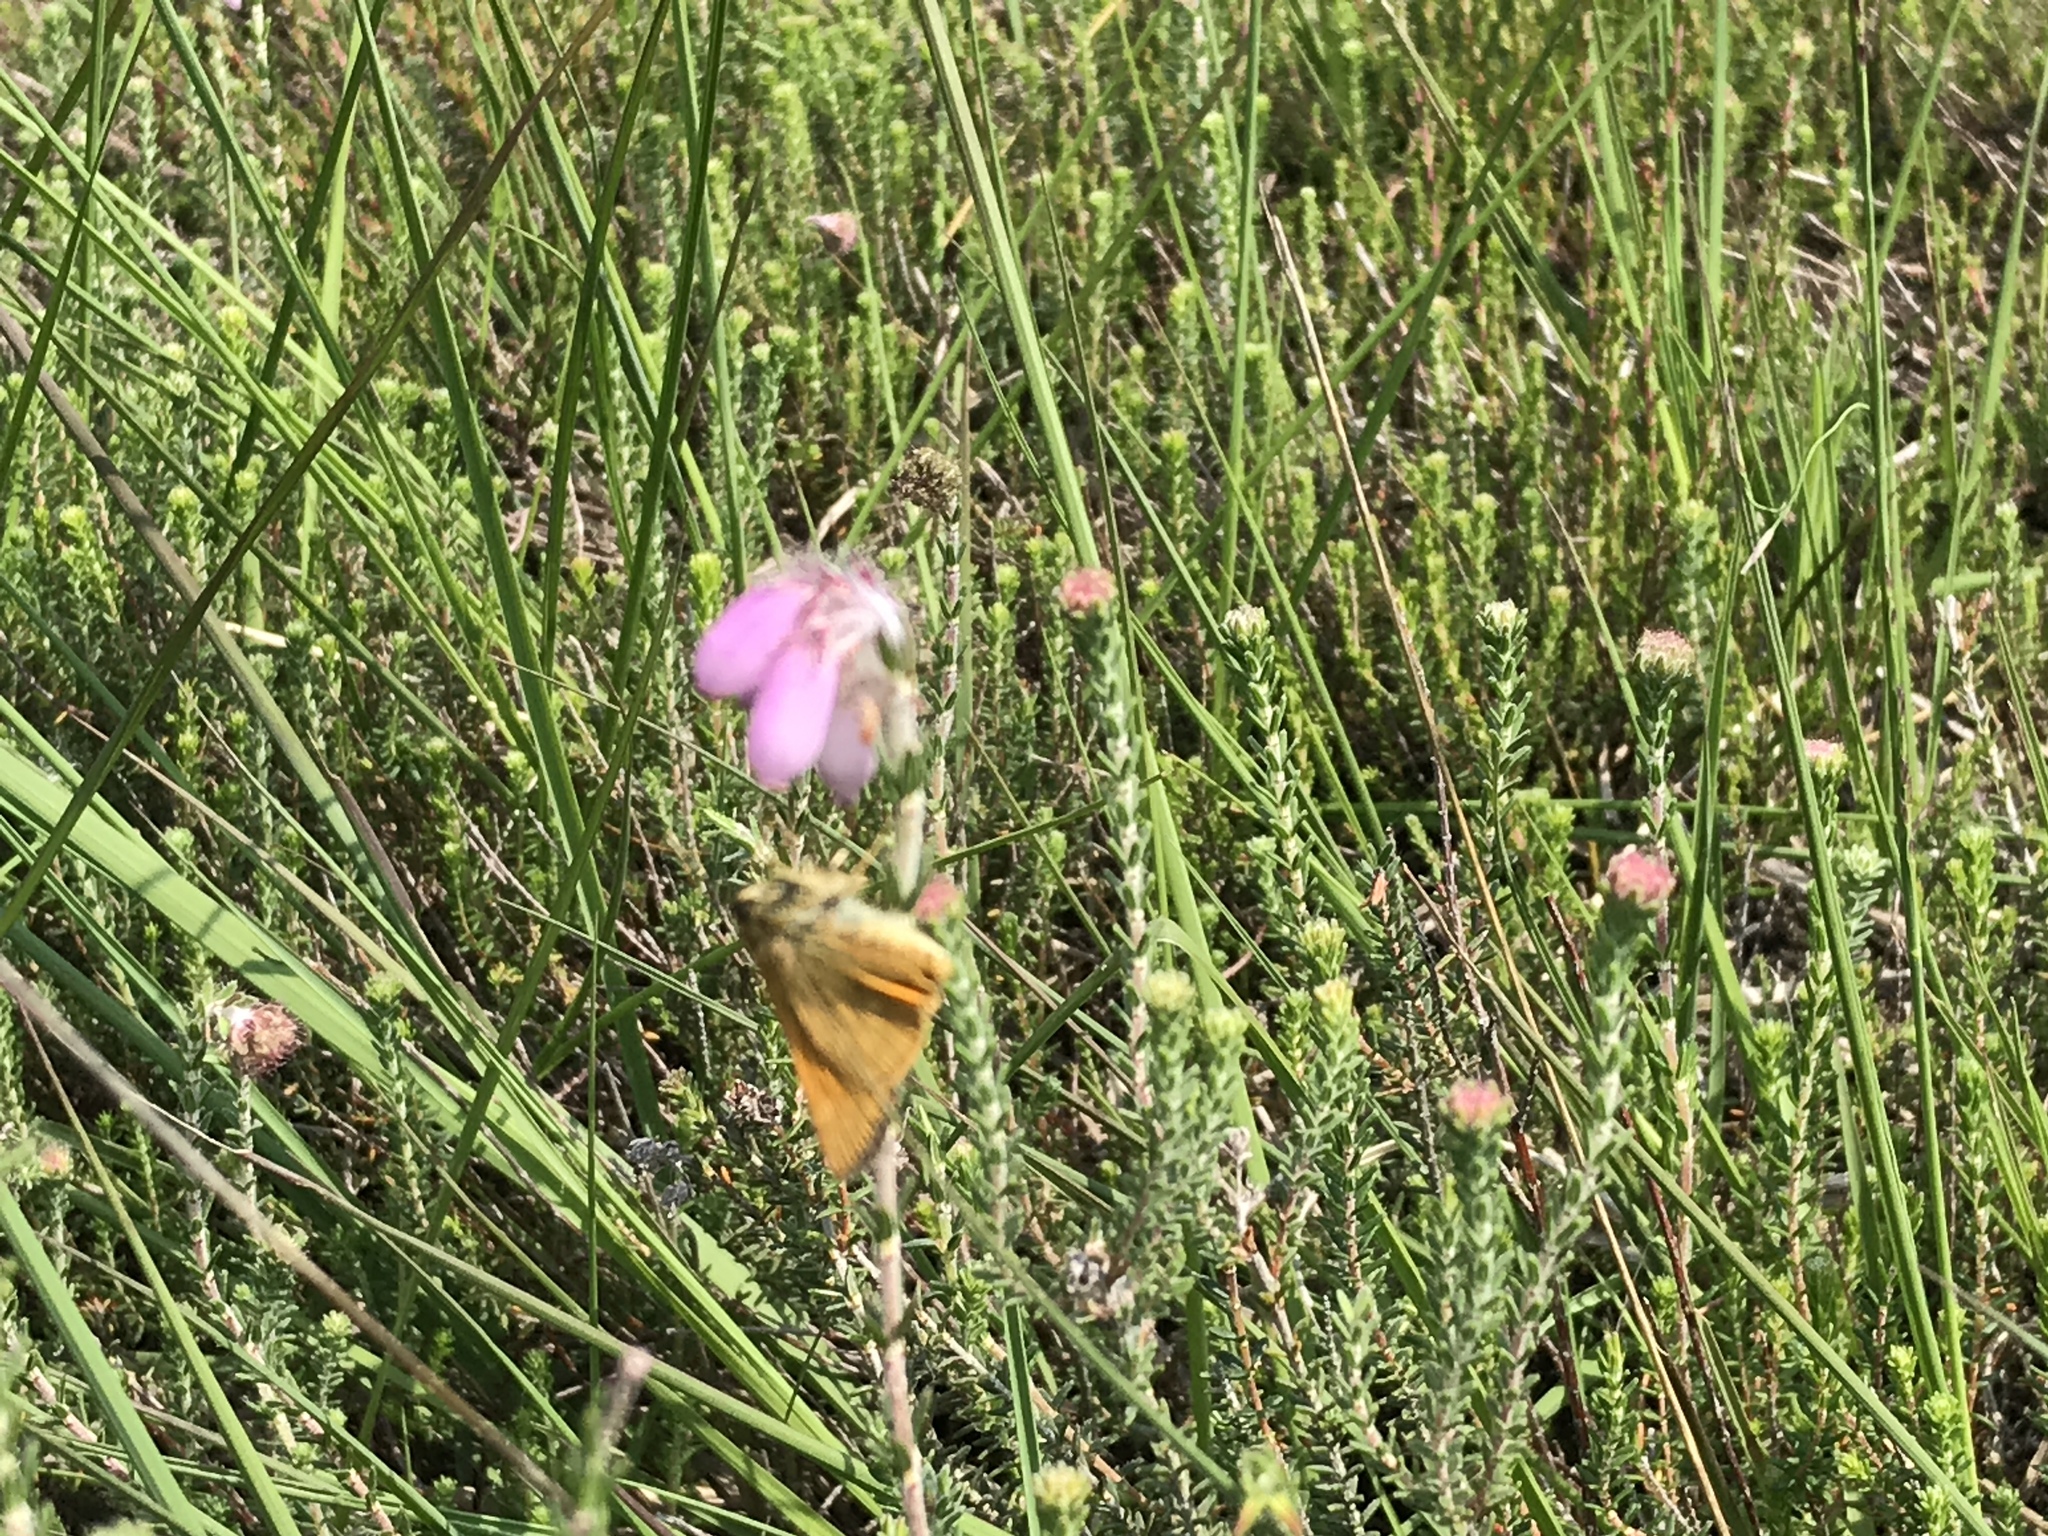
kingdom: Animalia
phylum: Arthropoda
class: Insecta
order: Lepidoptera
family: Hesperiidae
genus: Ochlodes
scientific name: Ochlodes venata
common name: Large skipper
